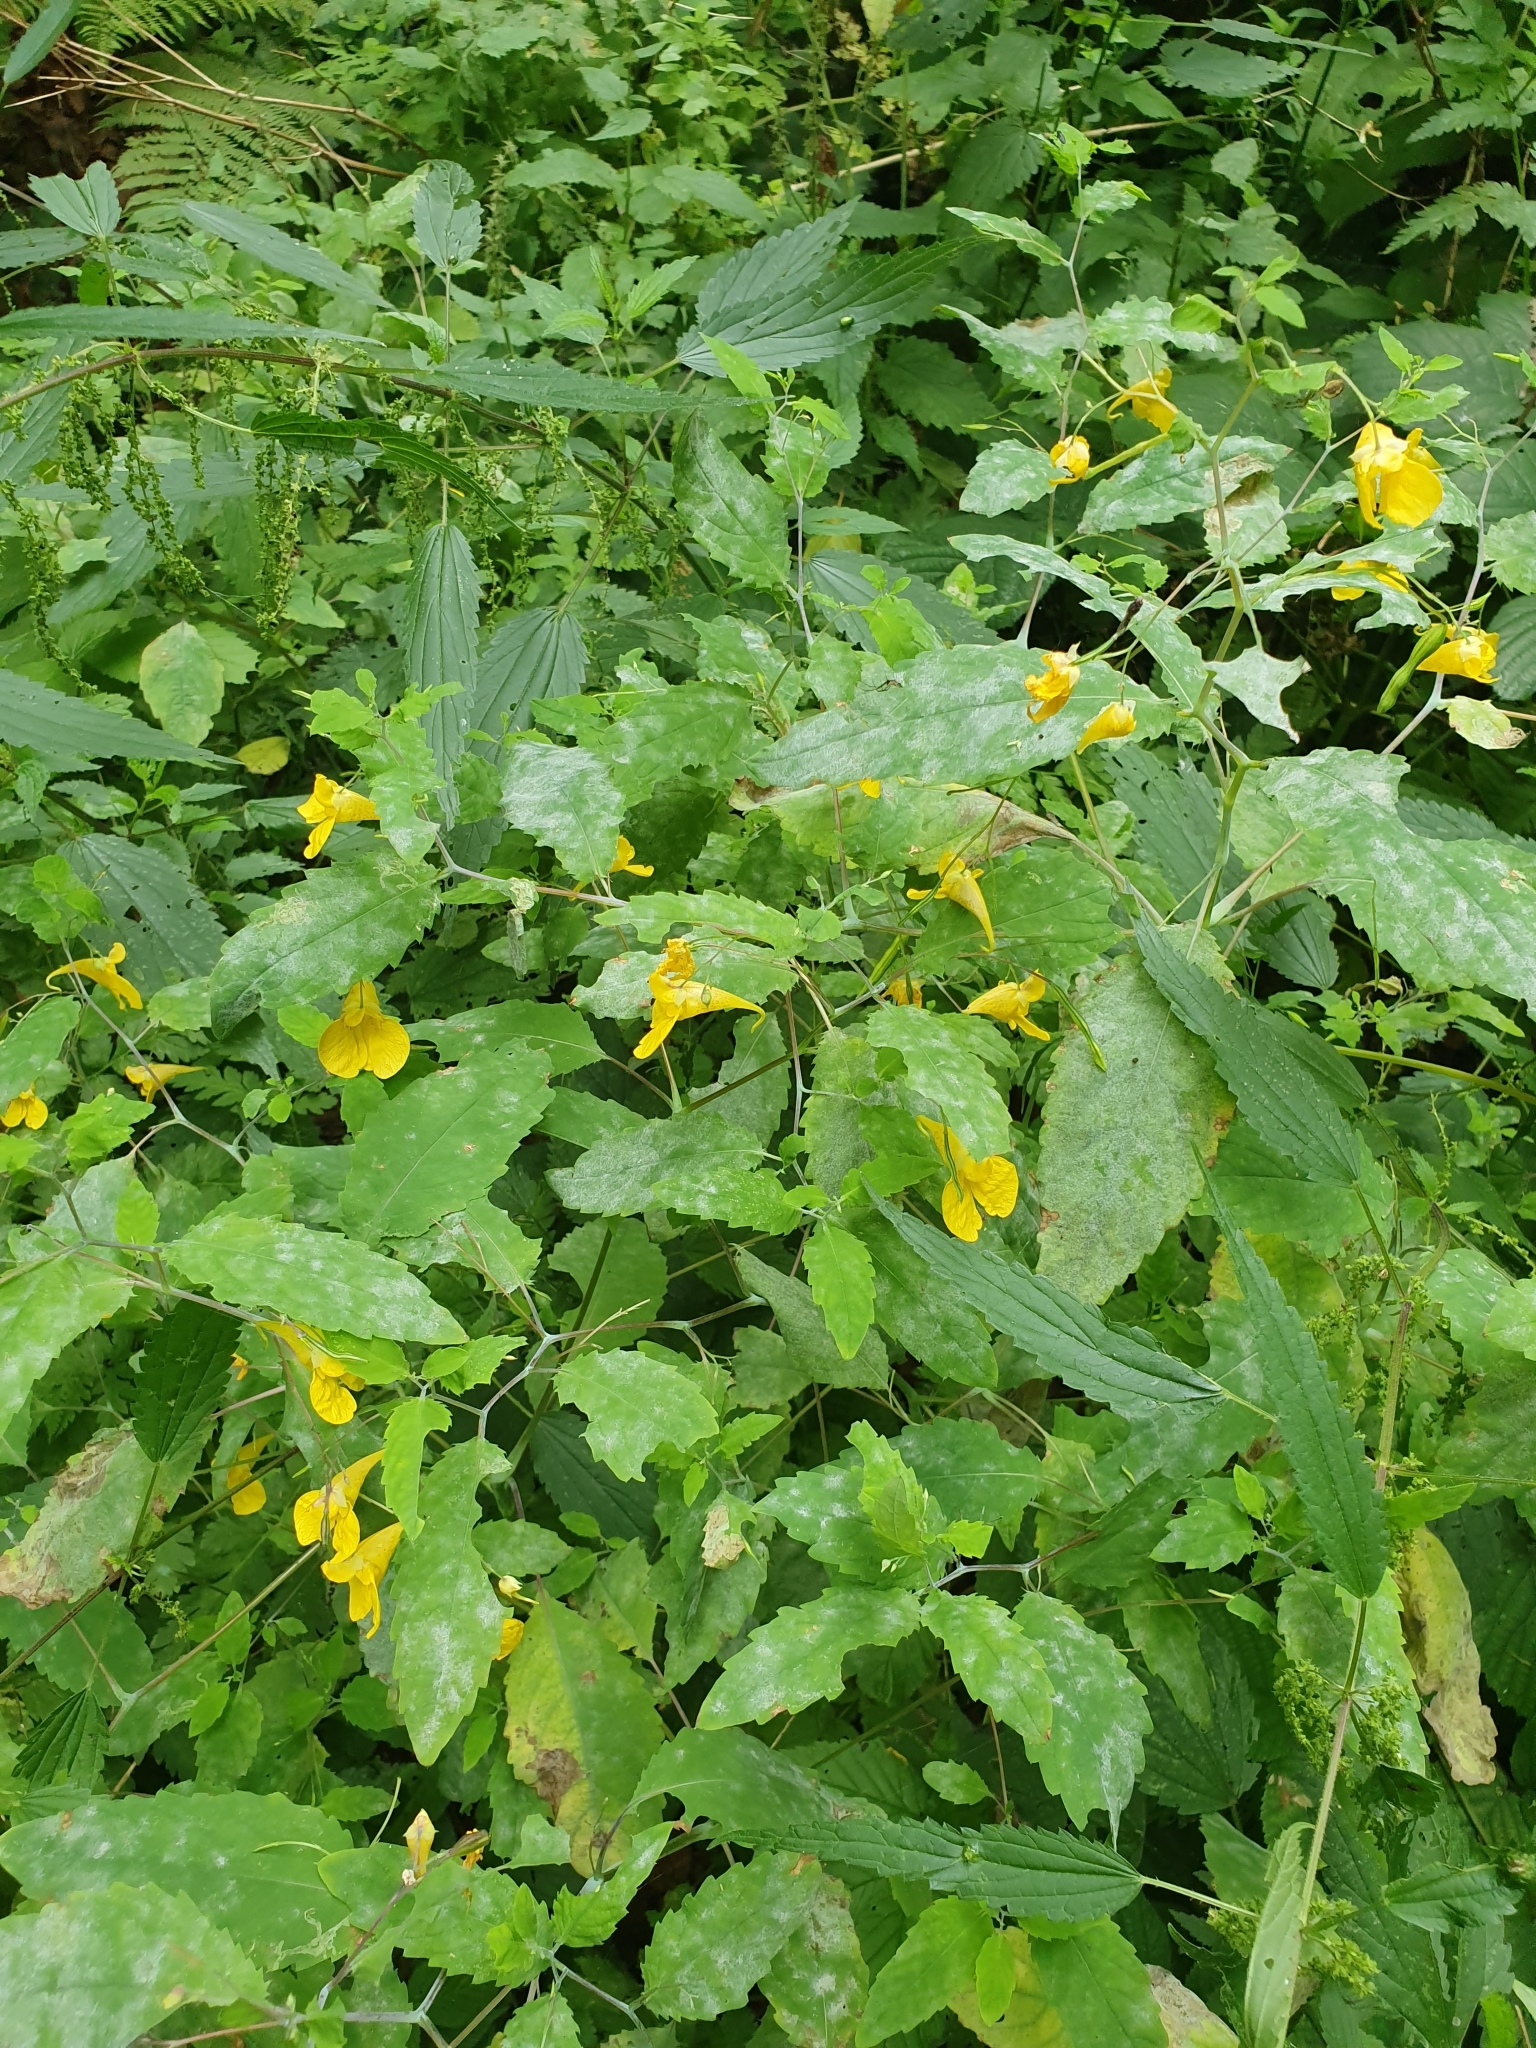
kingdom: Plantae
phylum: Tracheophyta
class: Magnoliopsida
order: Ericales
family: Balsaminaceae
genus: Impatiens
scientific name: Impatiens noli-tangere
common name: Touch-me-not balsam
